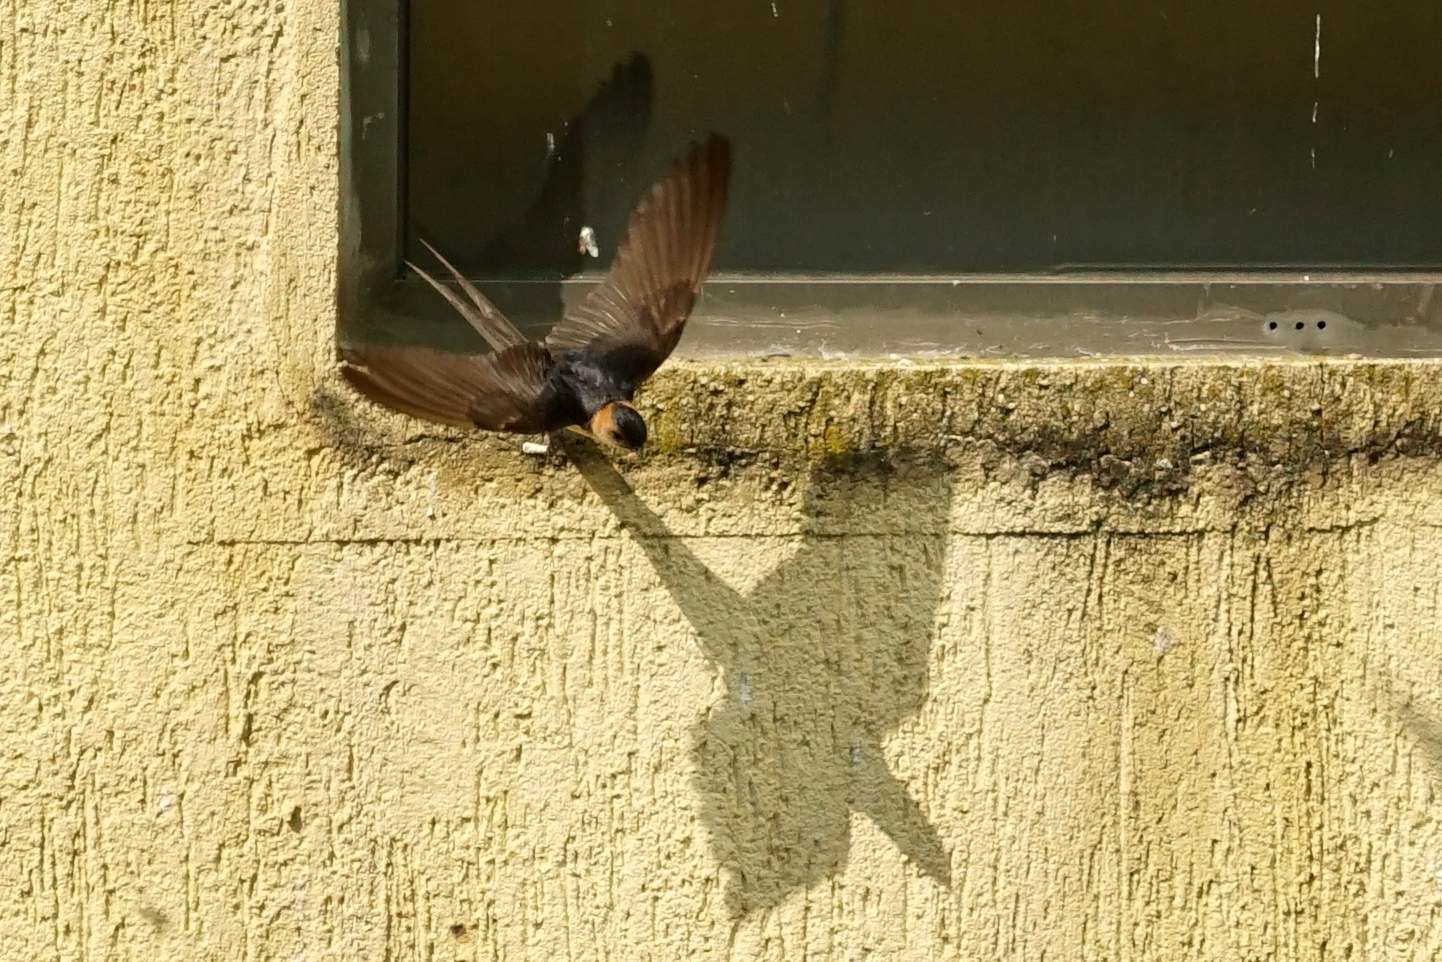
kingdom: Animalia
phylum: Chordata
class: Aves
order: Passeriformes
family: Hirundinidae
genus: Cecropis
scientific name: Cecropis daurica
